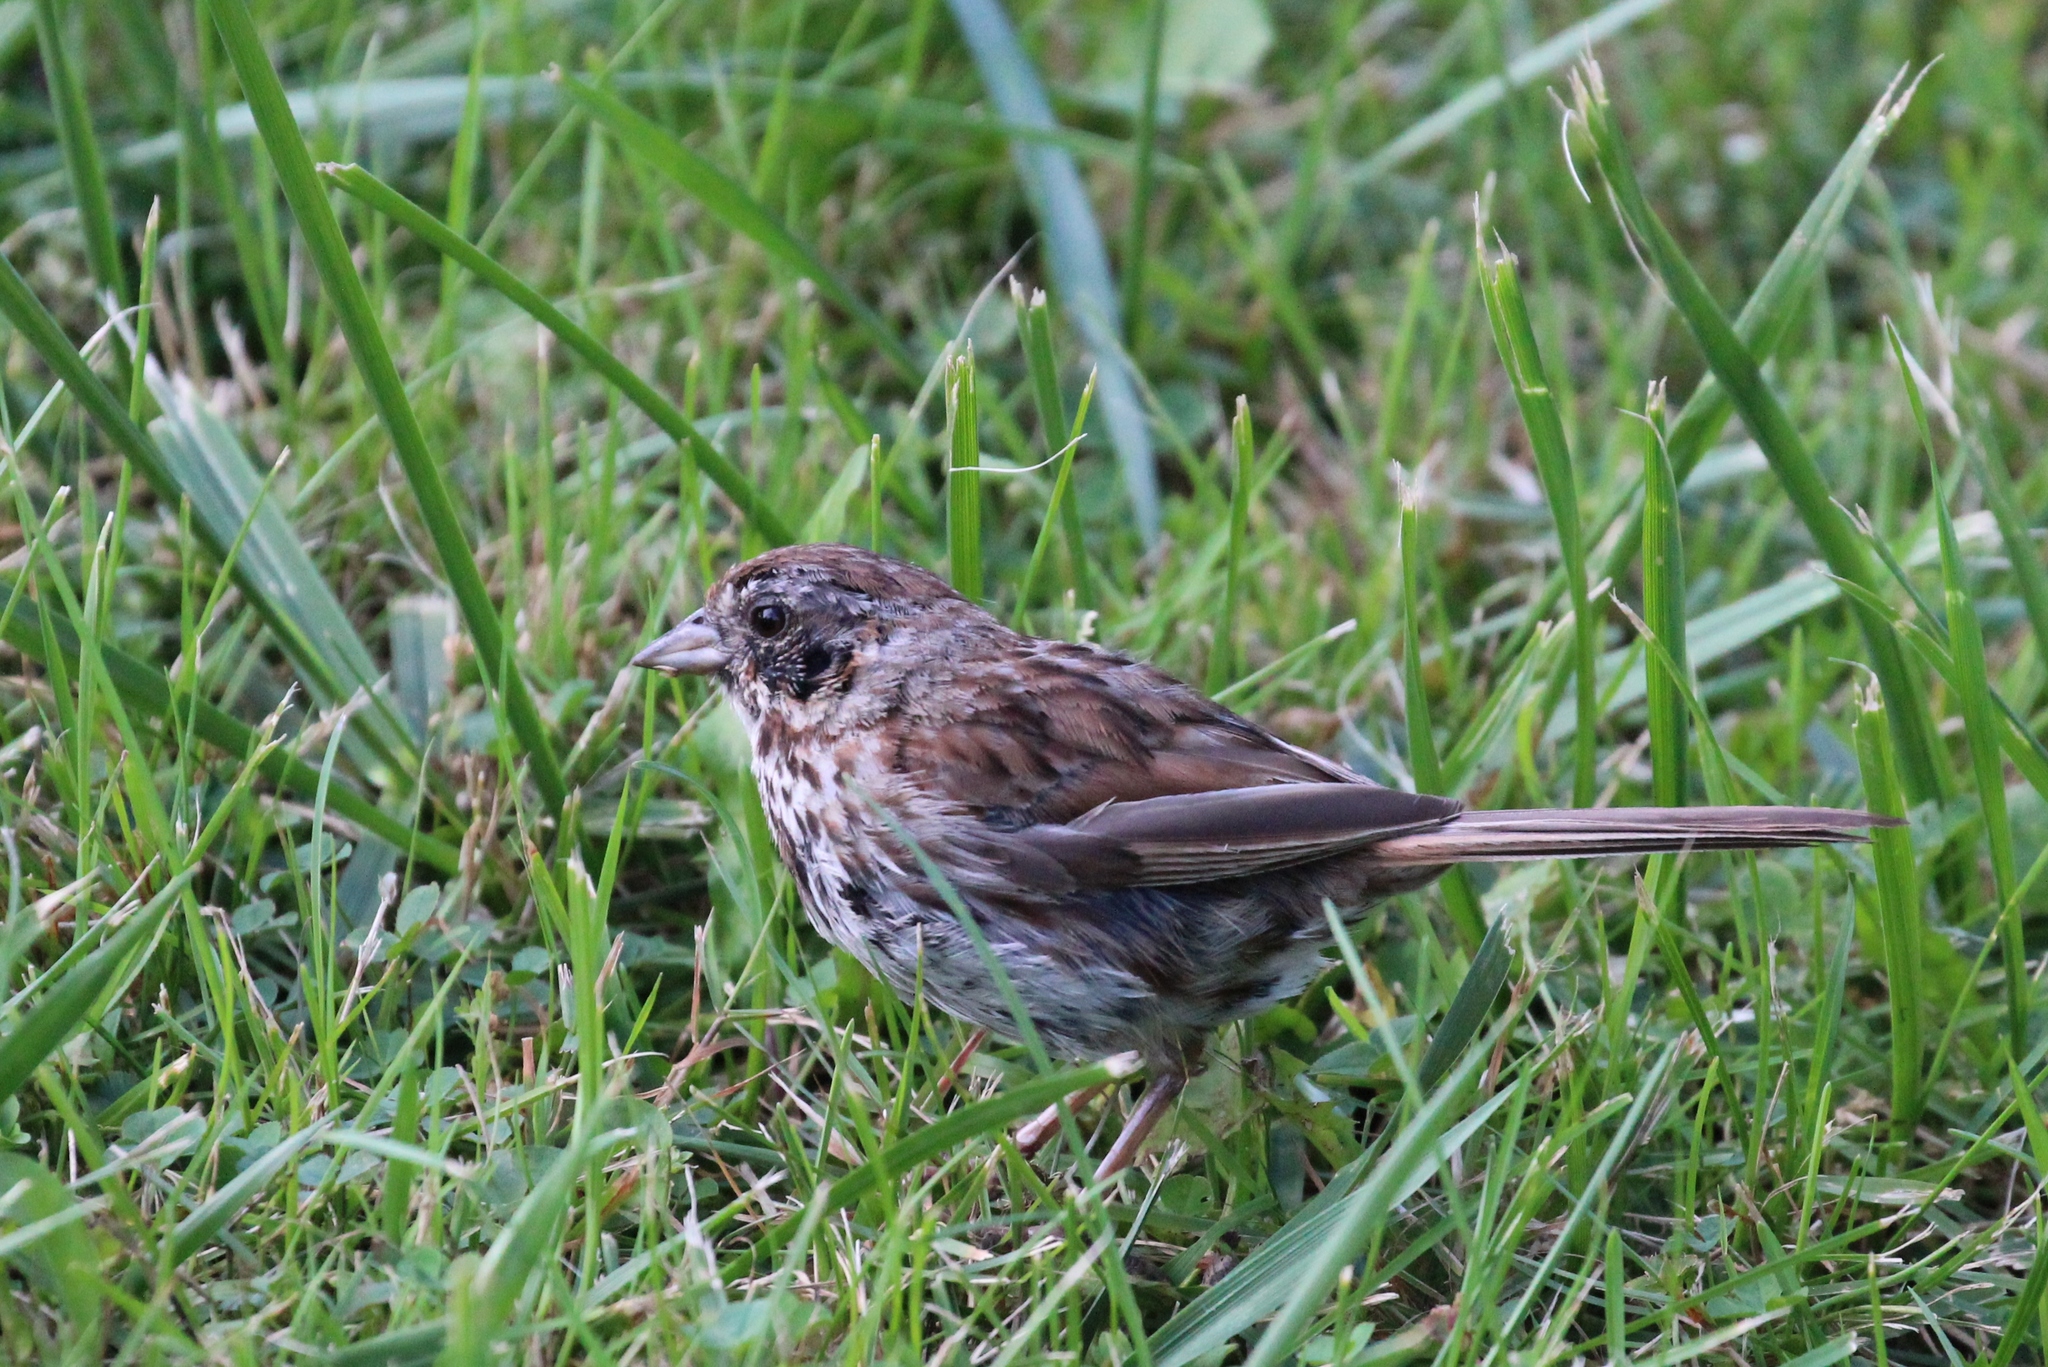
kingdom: Animalia
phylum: Chordata
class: Aves
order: Passeriformes
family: Passerellidae
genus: Melospiza
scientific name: Melospiza melodia
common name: Song sparrow
